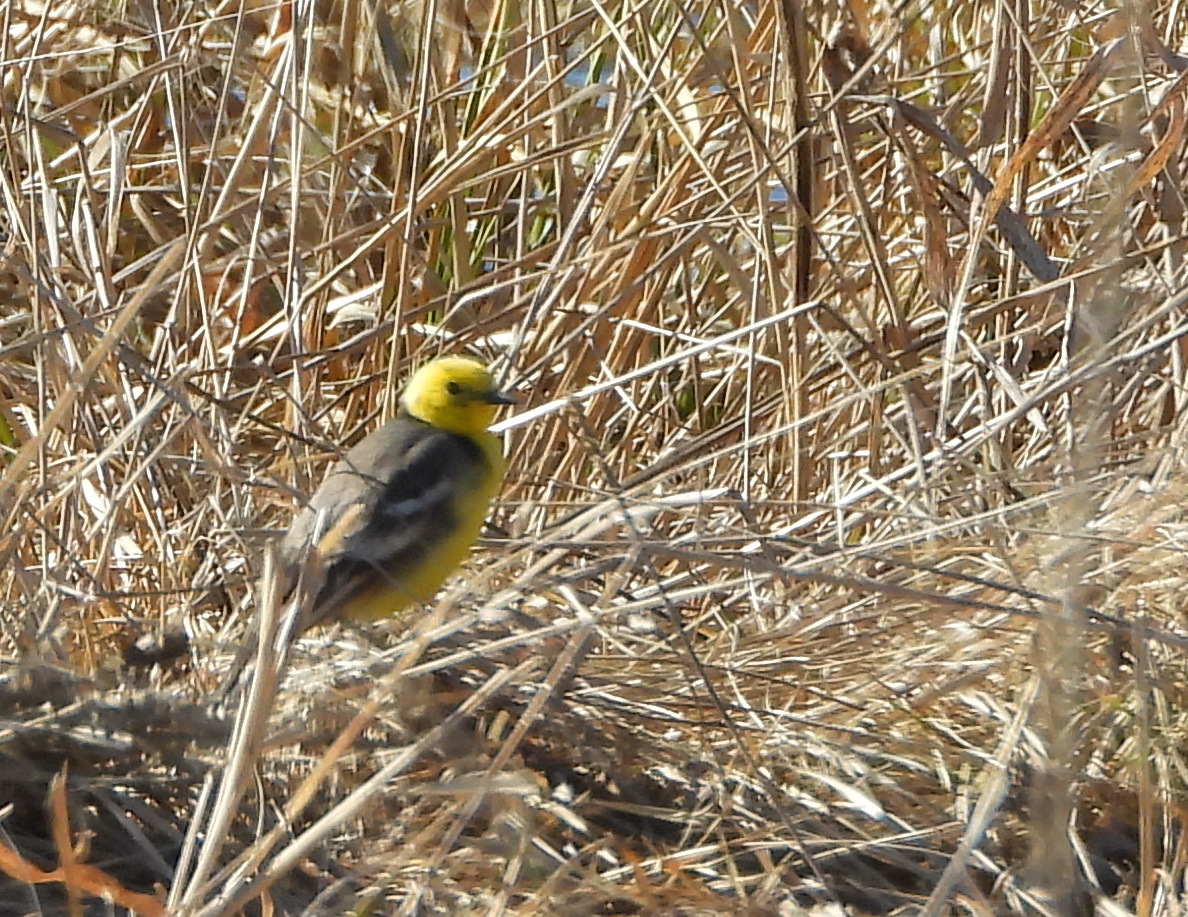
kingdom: Animalia
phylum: Chordata
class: Aves
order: Passeriformes
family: Motacillidae
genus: Motacilla
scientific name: Motacilla citreola
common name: Citrine wagtail
